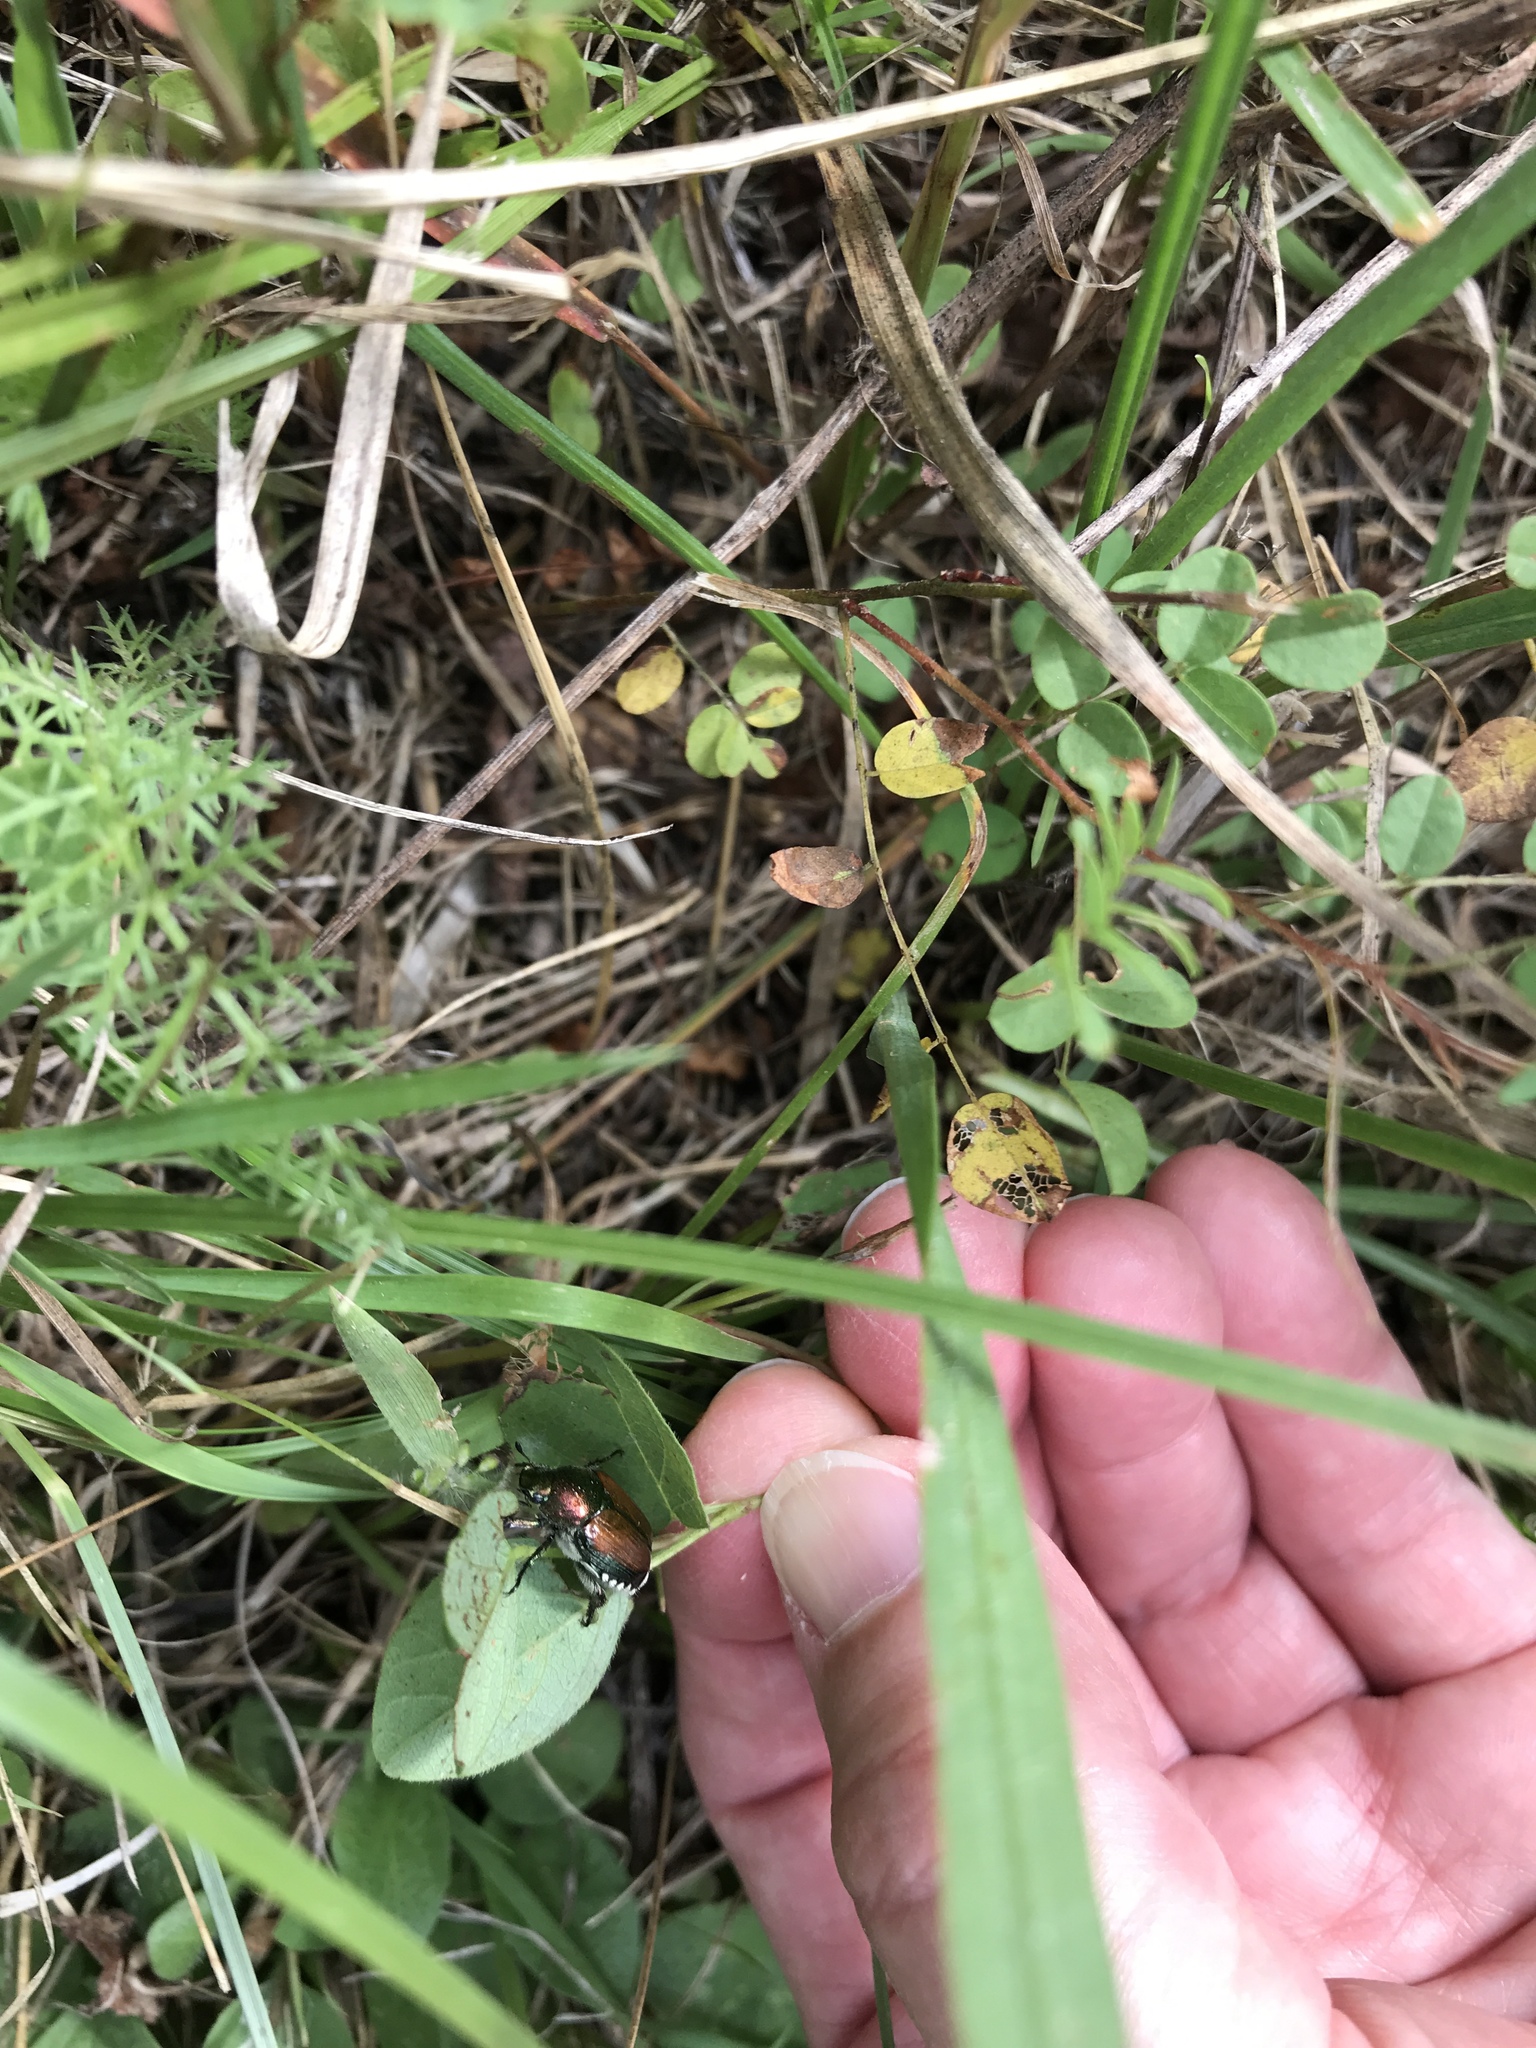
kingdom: Animalia
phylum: Arthropoda
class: Insecta
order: Coleoptera
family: Scarabaeidae
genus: Popillia
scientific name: Popillia japonica
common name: Japanese beetle
